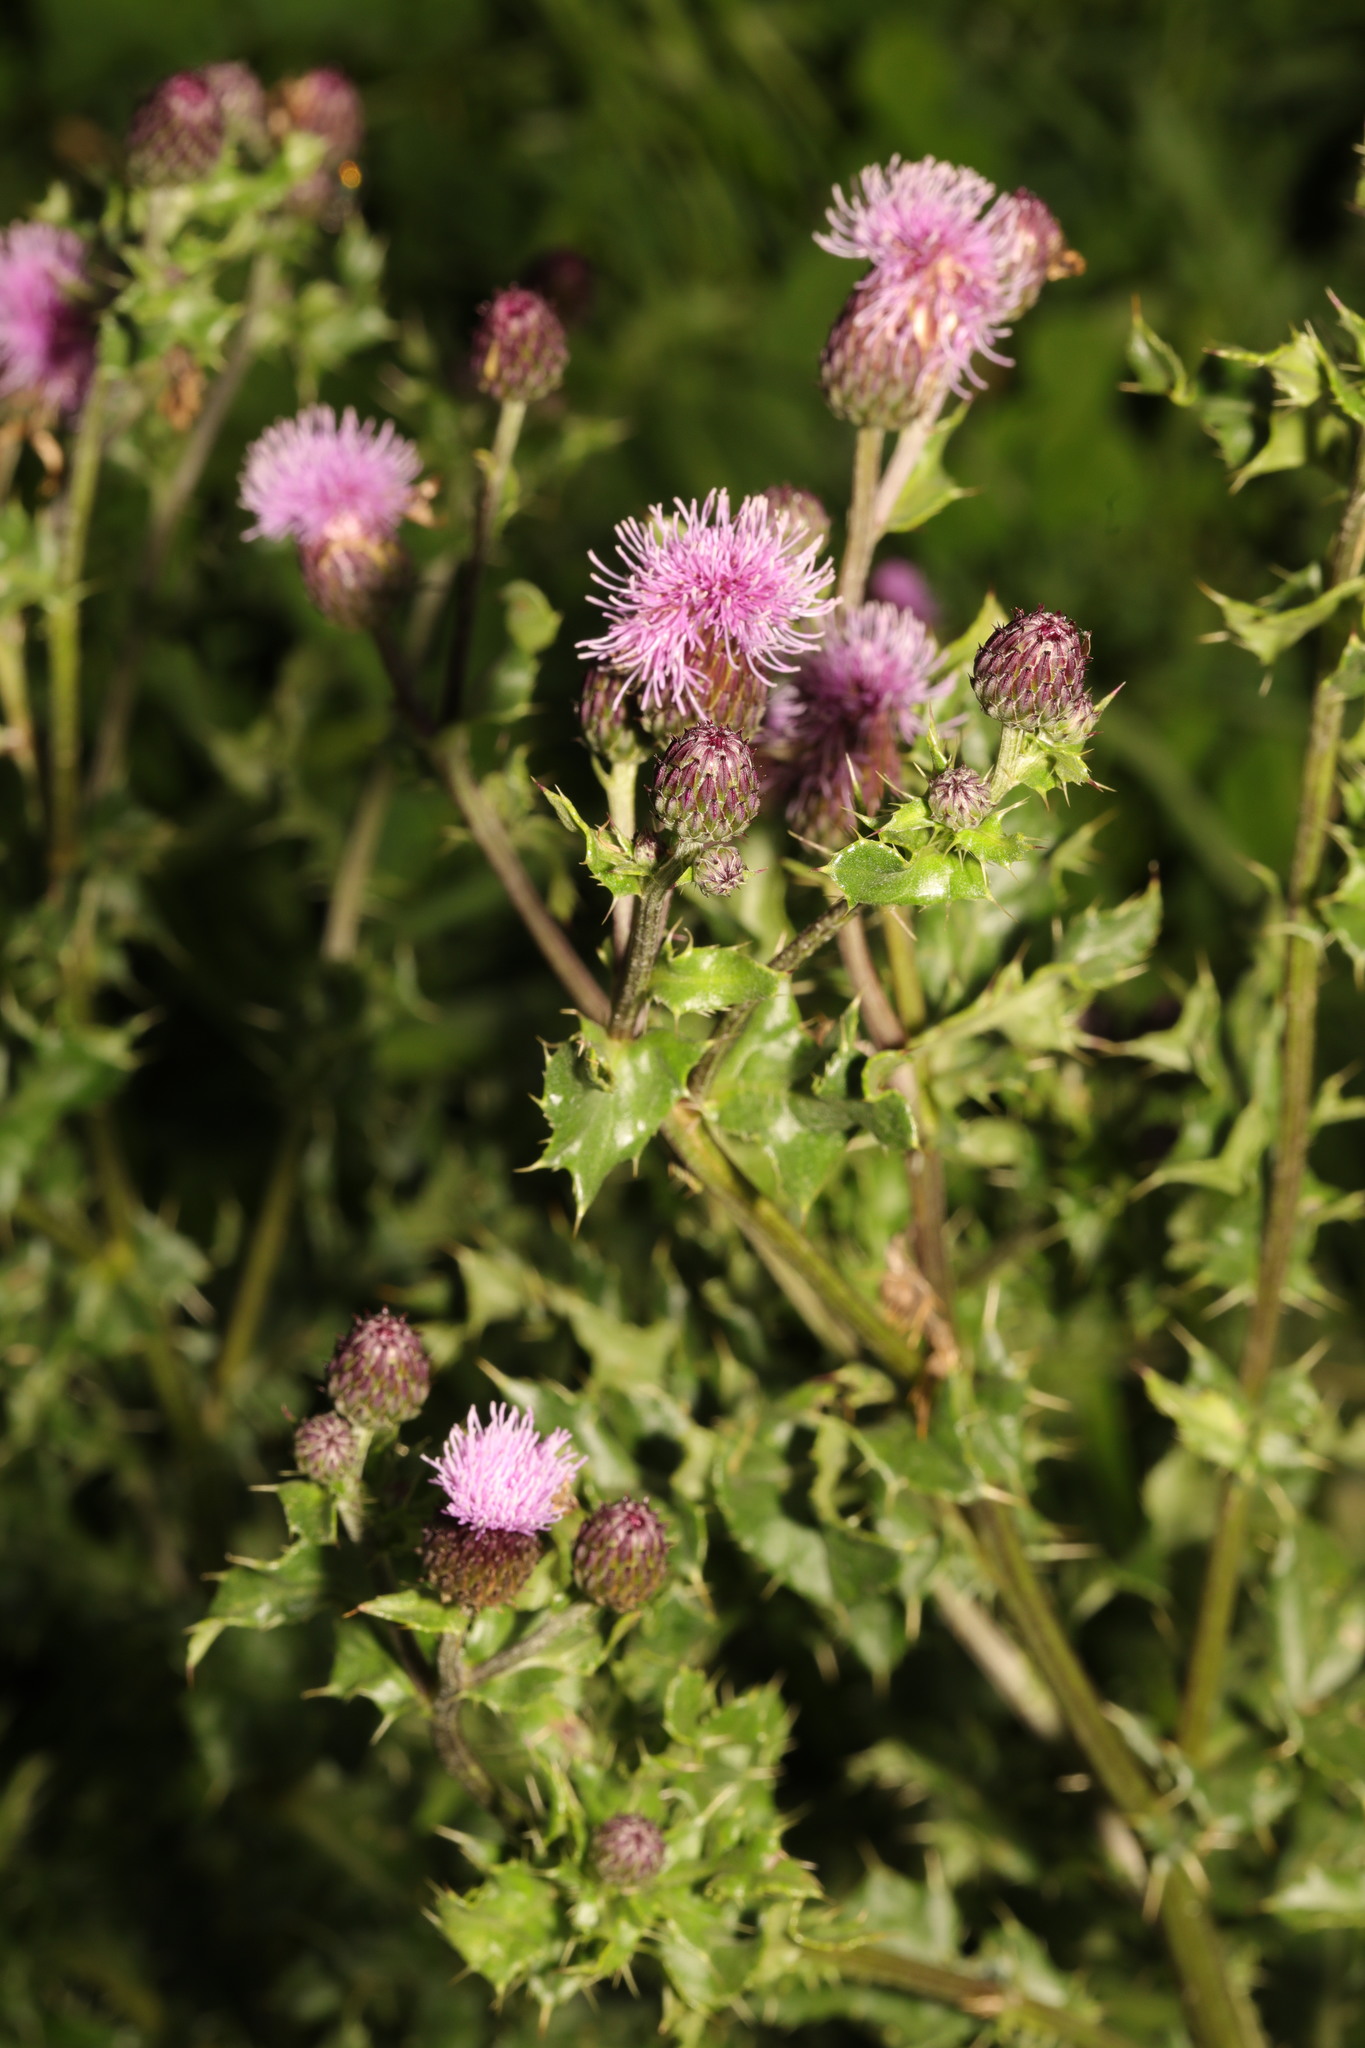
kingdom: Plantae
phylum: Tracheophyta
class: Magnoliopsida
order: Asterales
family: Asteraceae
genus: Cirsium
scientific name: Cirsium arvense
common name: Creeping thistle
